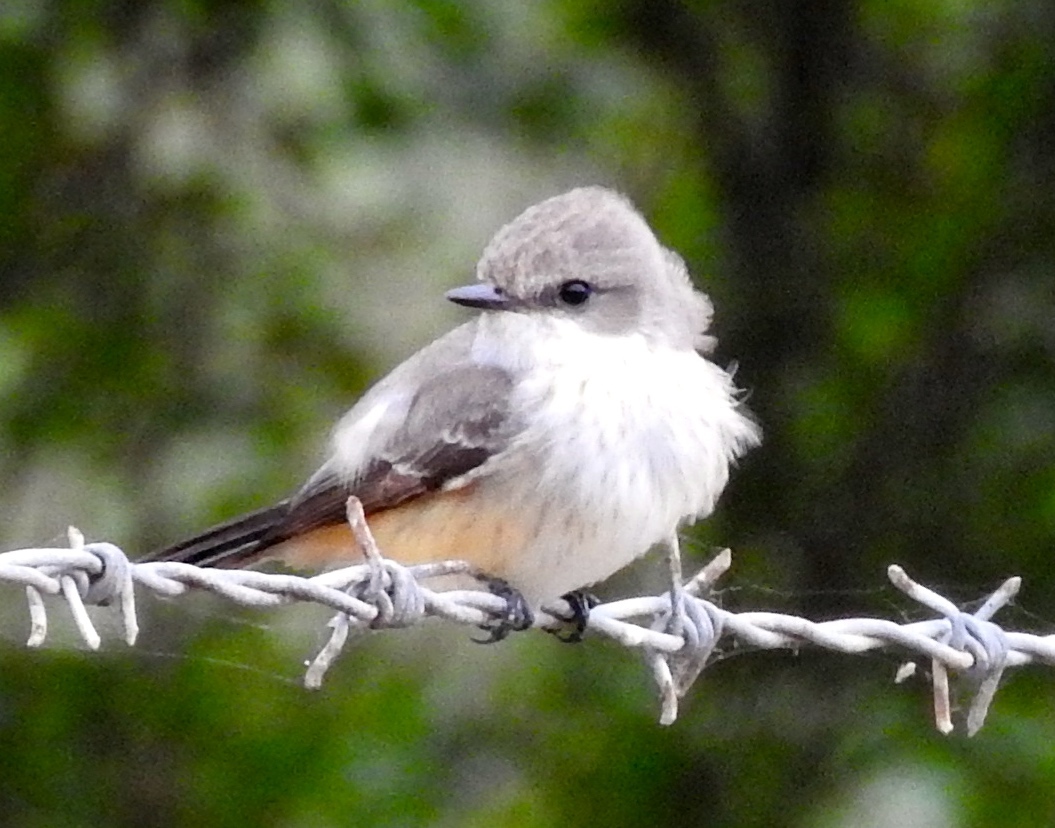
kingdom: Animalia
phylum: Chordata
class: Aves
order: Passeriformes
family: Tyrannidae
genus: Pyrocephalus
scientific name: Pyrocephalus rubinus
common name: Vermilion flycatcher
